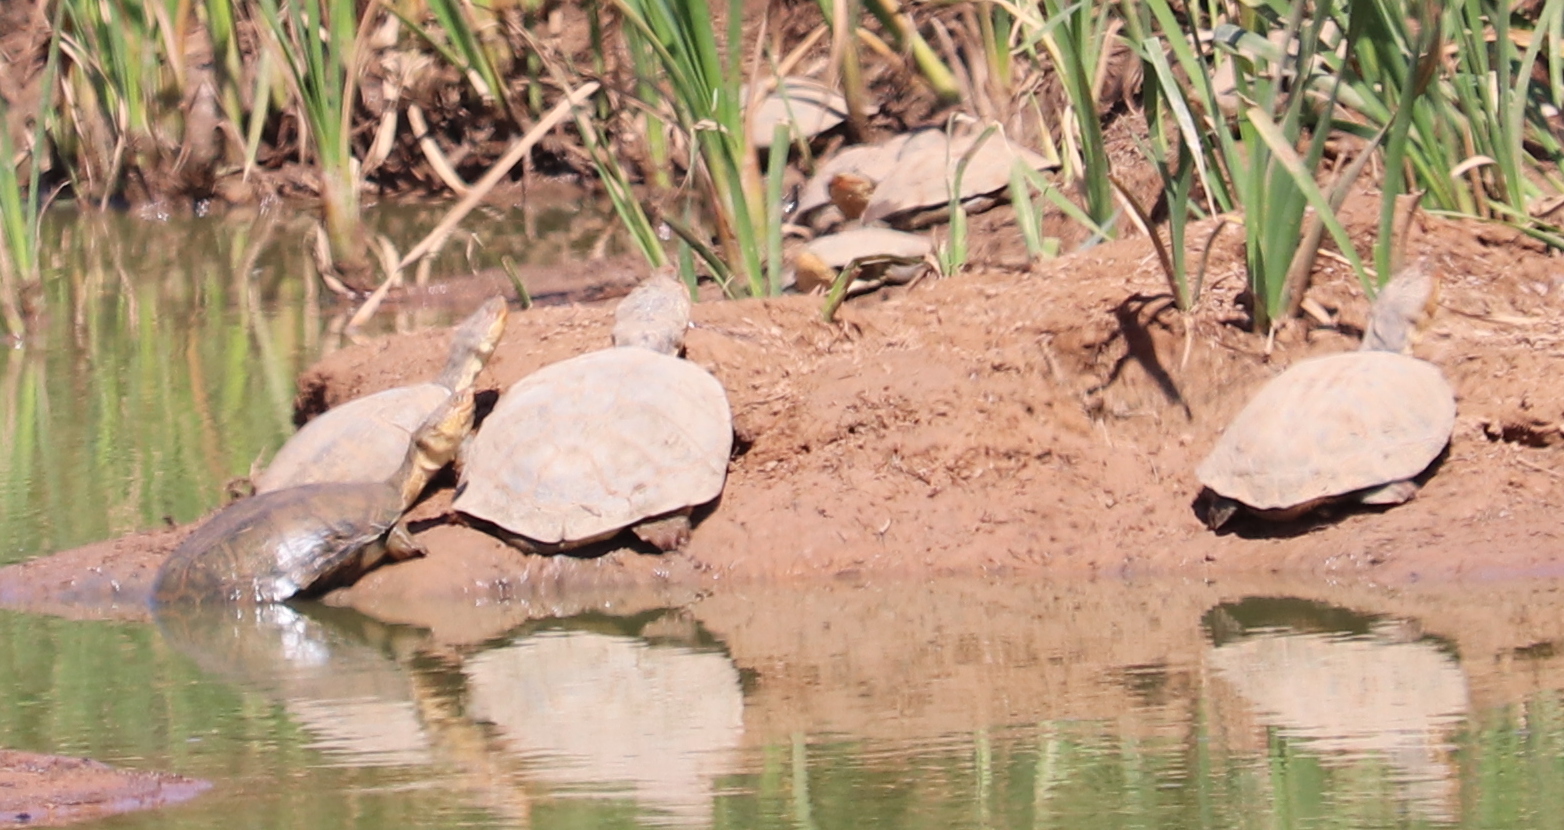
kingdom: Animalia
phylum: Chordata
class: Testudines
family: Pelomedusidae
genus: Pelomedusa
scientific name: Pelomedusa galeata
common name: South african helmeted terrapin
